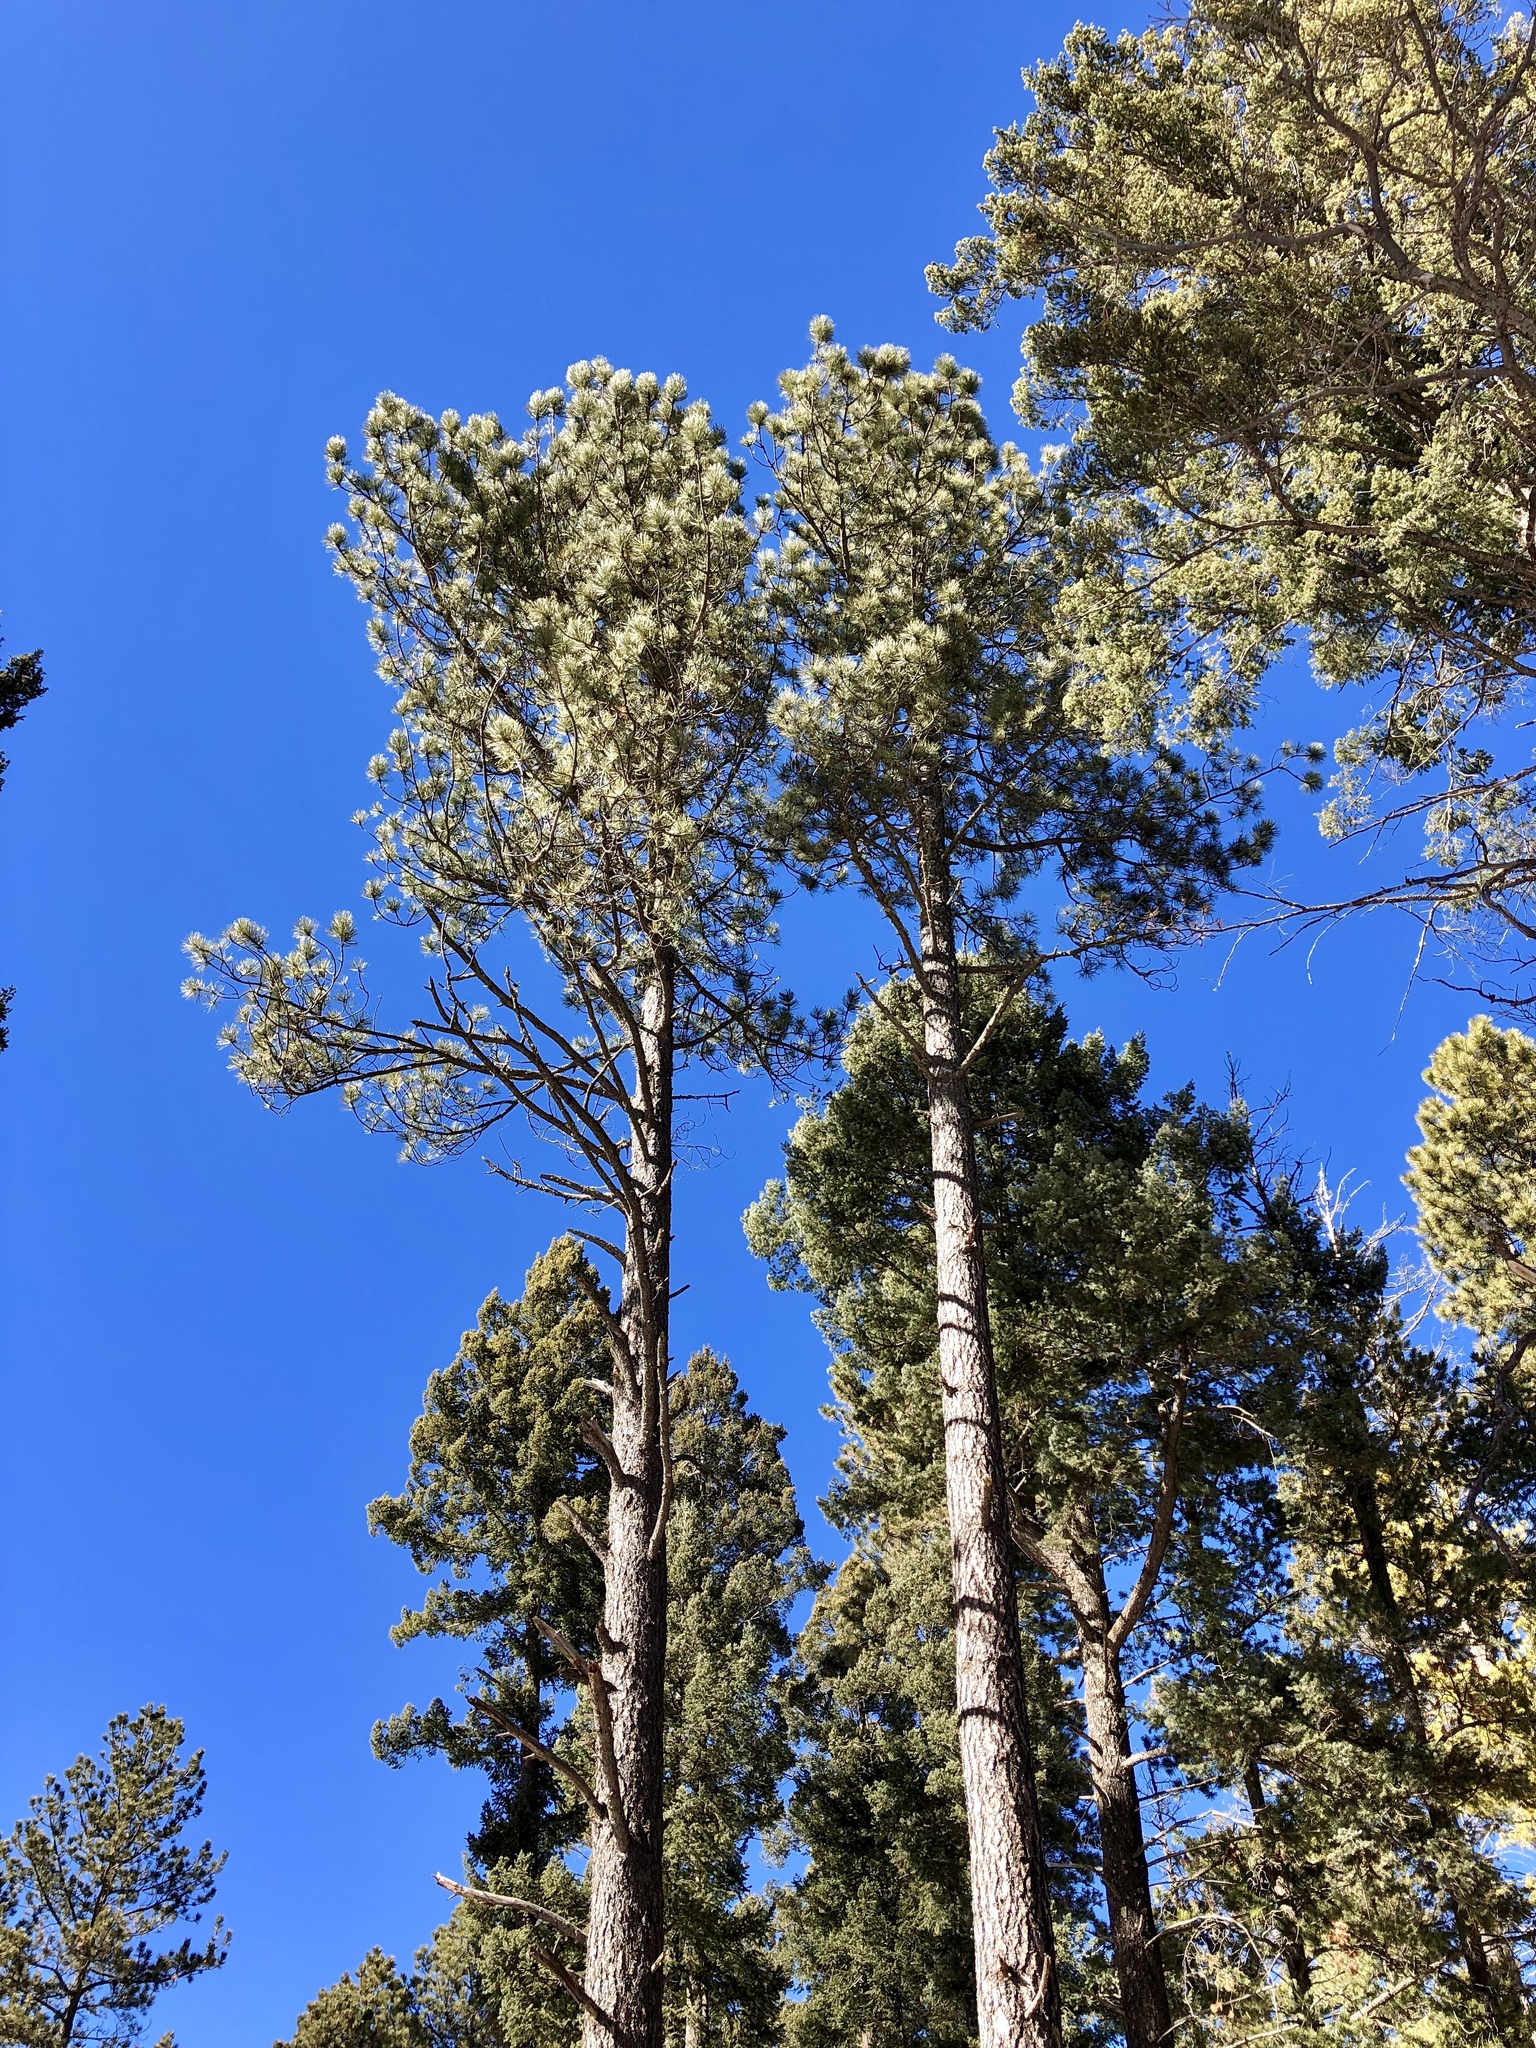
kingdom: Plantae
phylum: Tracheophyta
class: Pinopsida
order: Pinales
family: Pinaceae
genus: Pinus
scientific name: Pinus ponderosa
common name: Western yellow-pine
